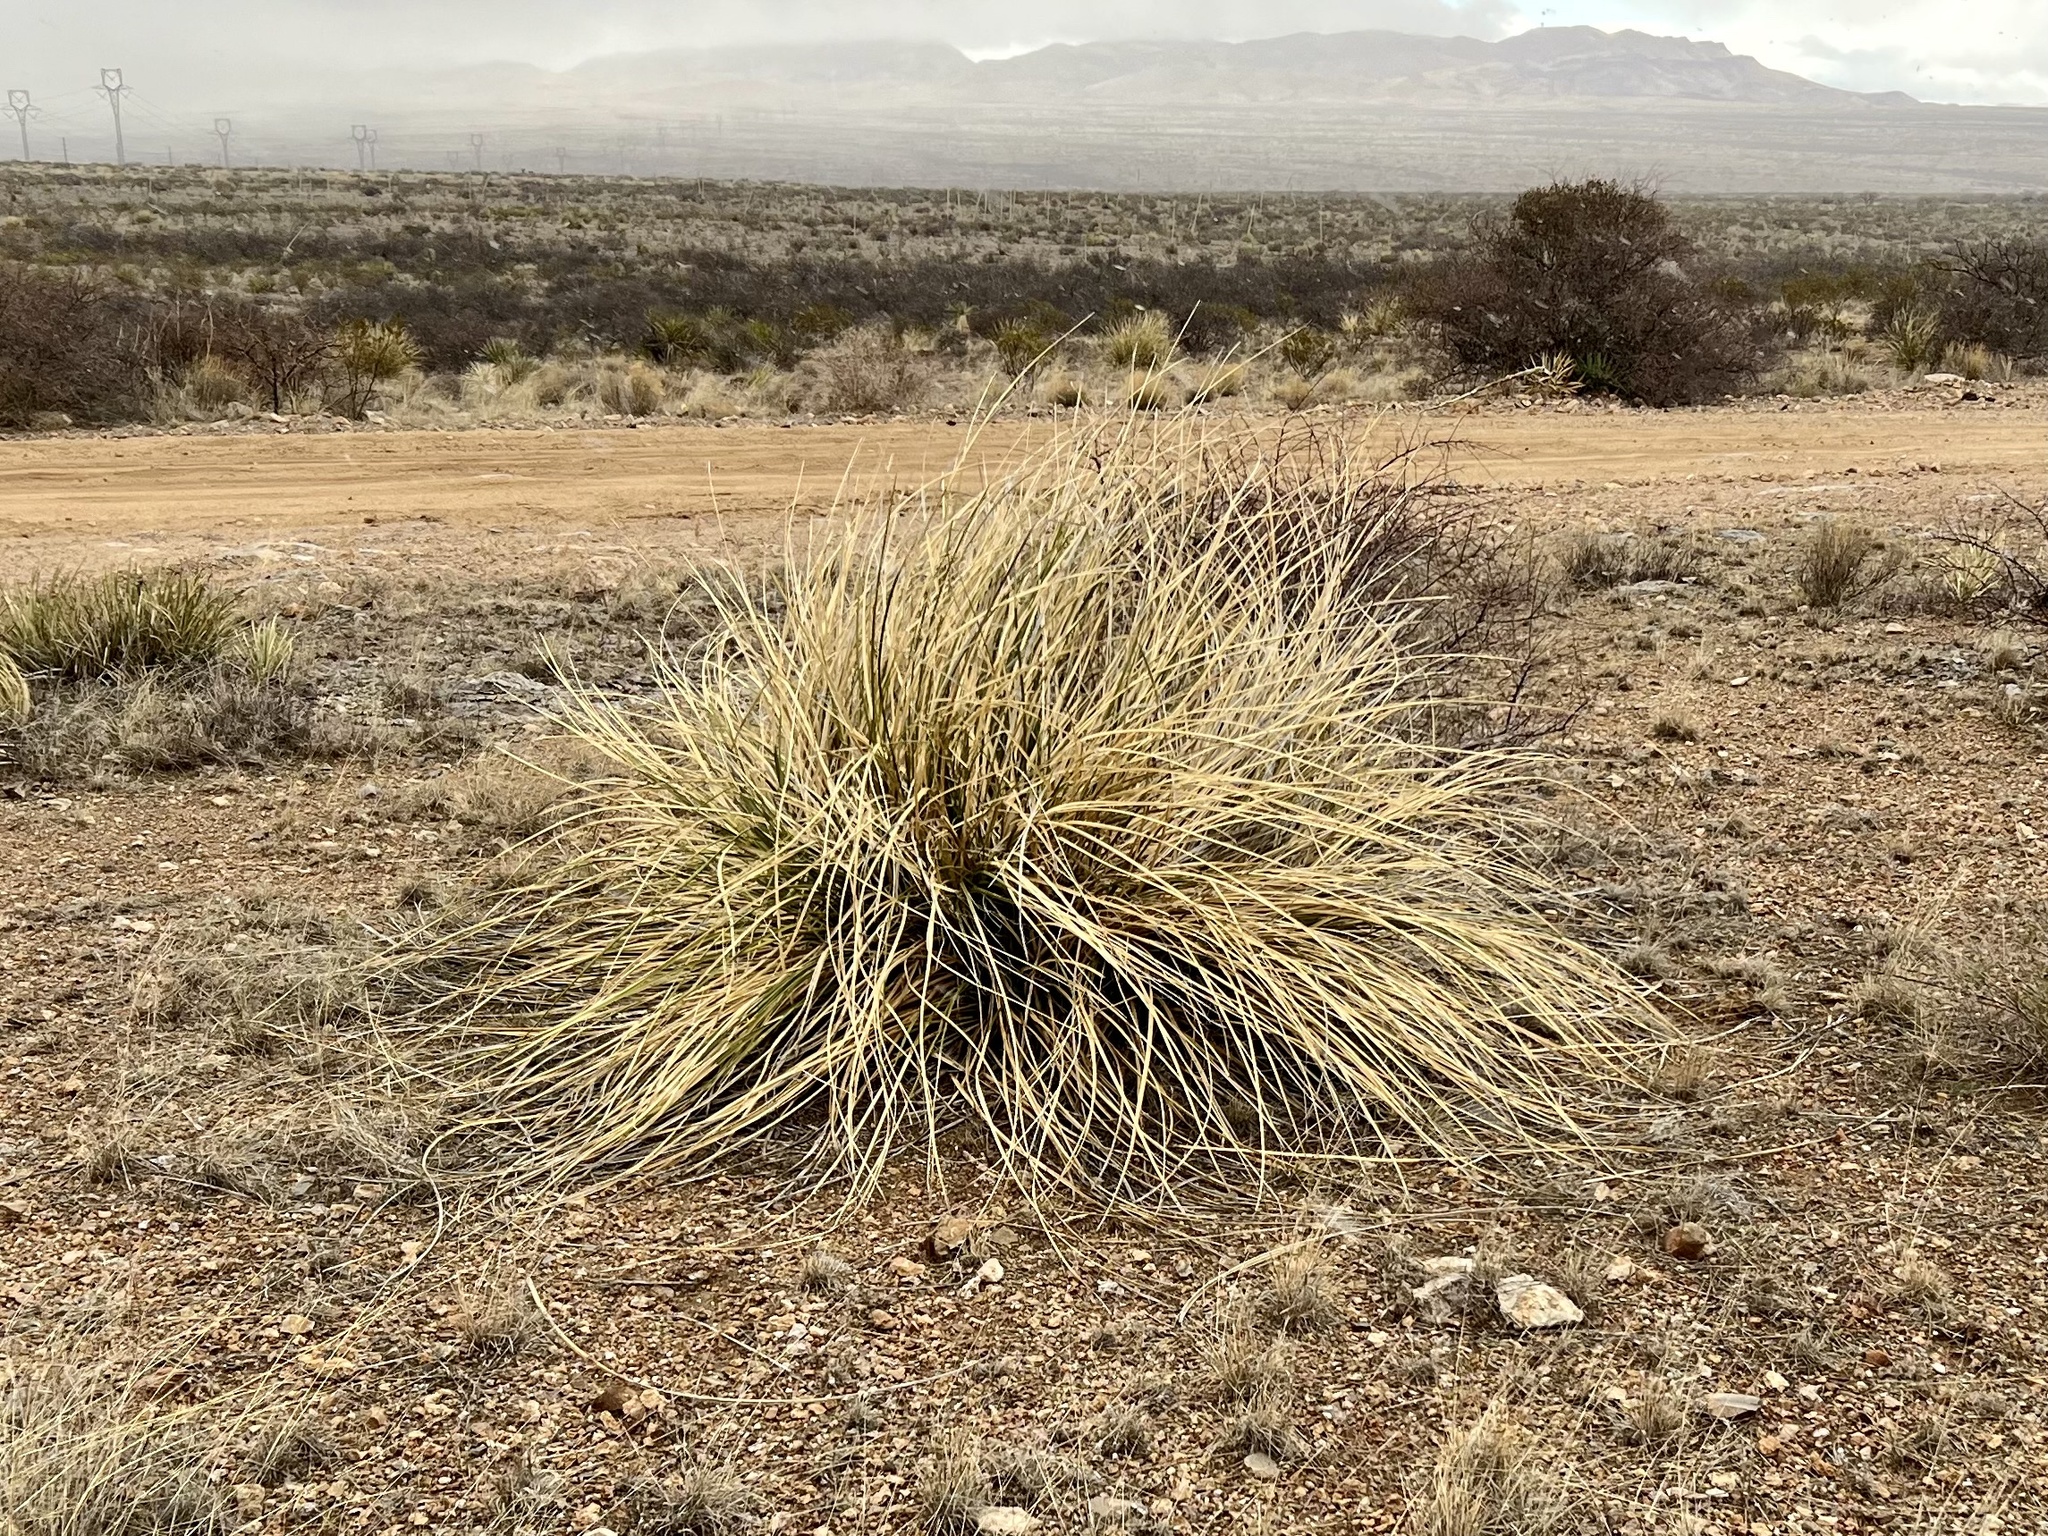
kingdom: Plantae
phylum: Tracheophyta
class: Liliopsida
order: Asparagales
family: Asparagaceae
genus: Nolina
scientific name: Nolina microcarpa
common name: Bear-grass
